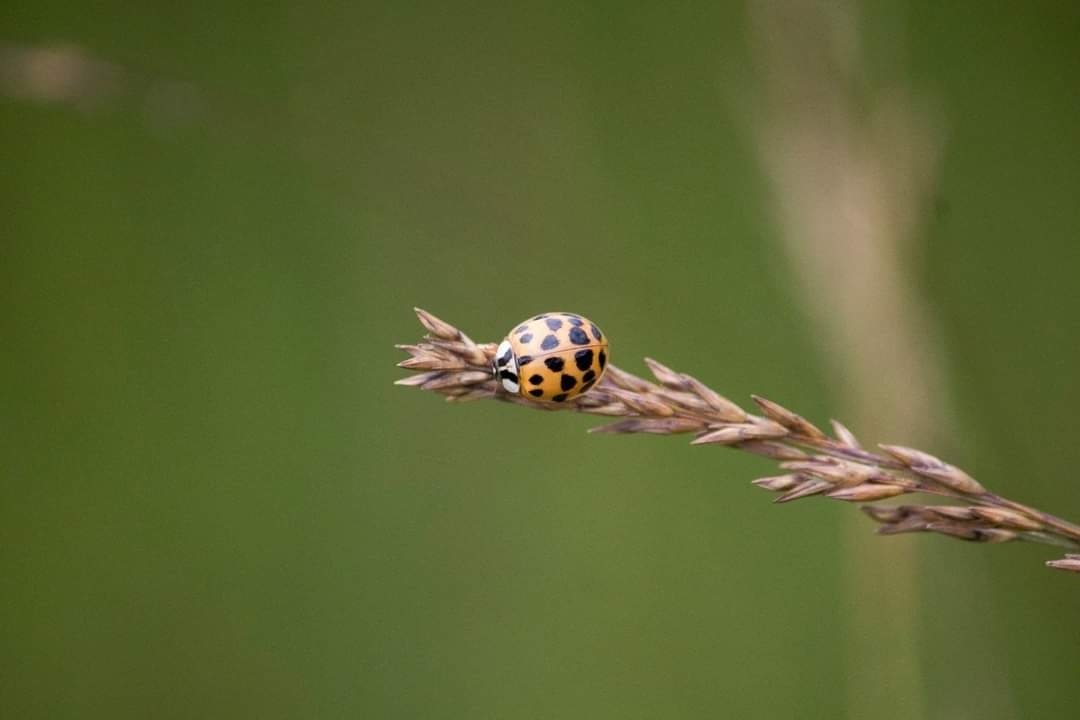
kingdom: Animalia
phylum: Arthropoda
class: Insecta
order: Coleoptera
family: Coccinellidae
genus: Harmonia
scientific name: Harmonia axyridis
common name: Harlequin ladybird
